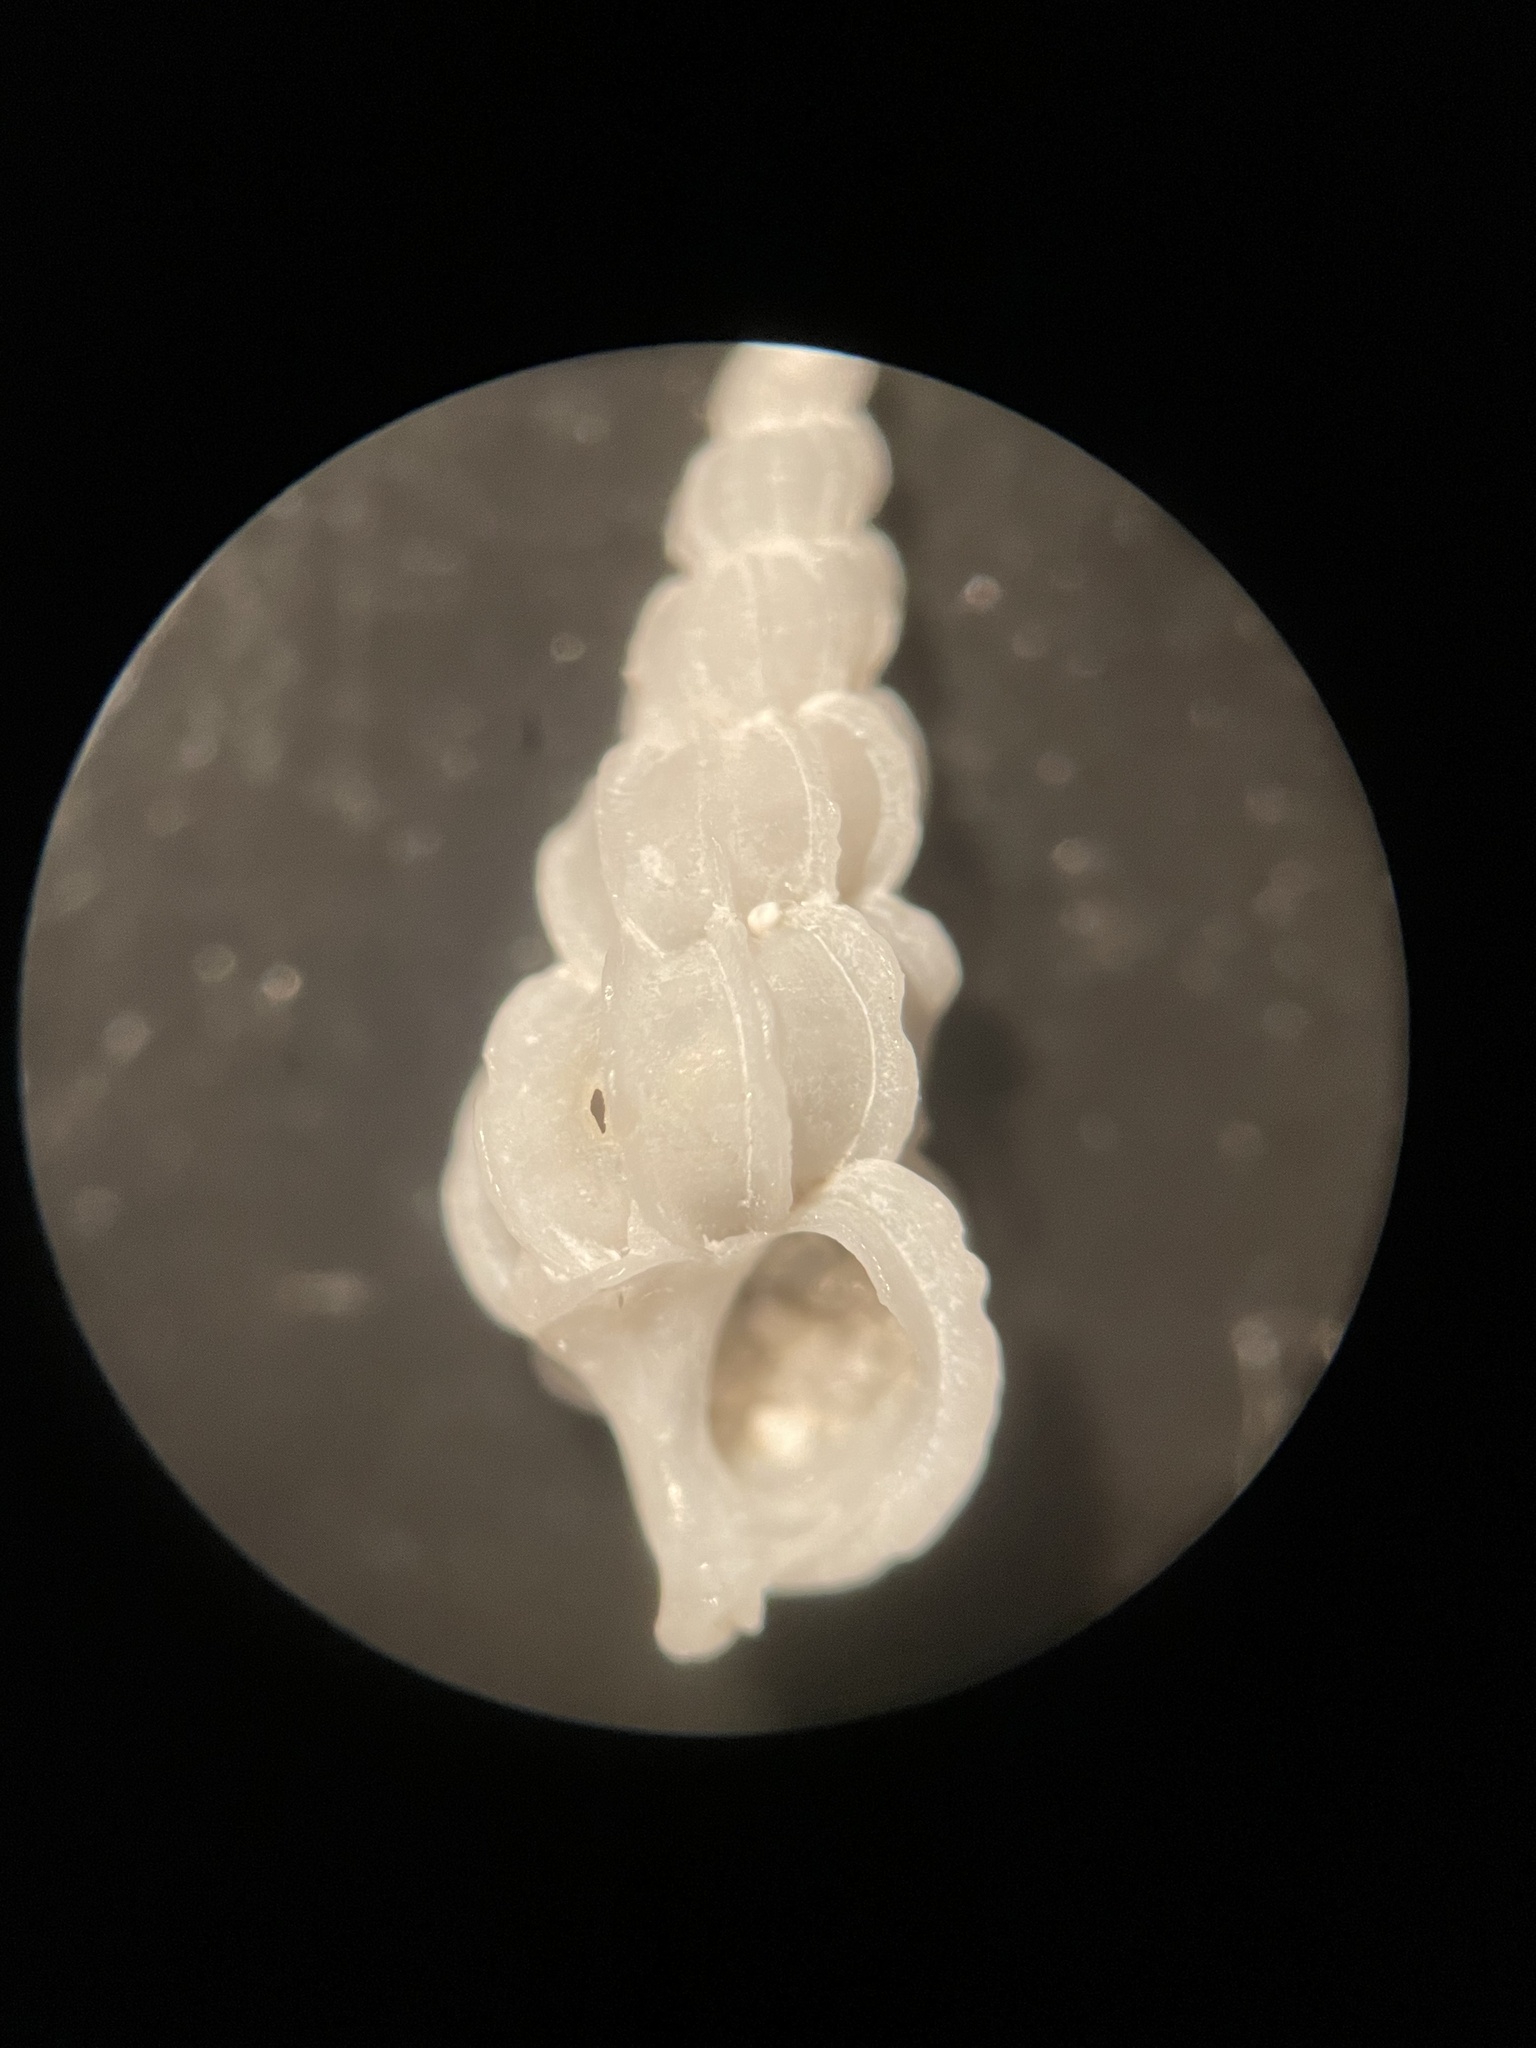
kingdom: Animalia
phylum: Mollusca
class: Gastropoda
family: Epitoniidae
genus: Epitonium
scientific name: Epitonium novangliae
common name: New england wentletrap
